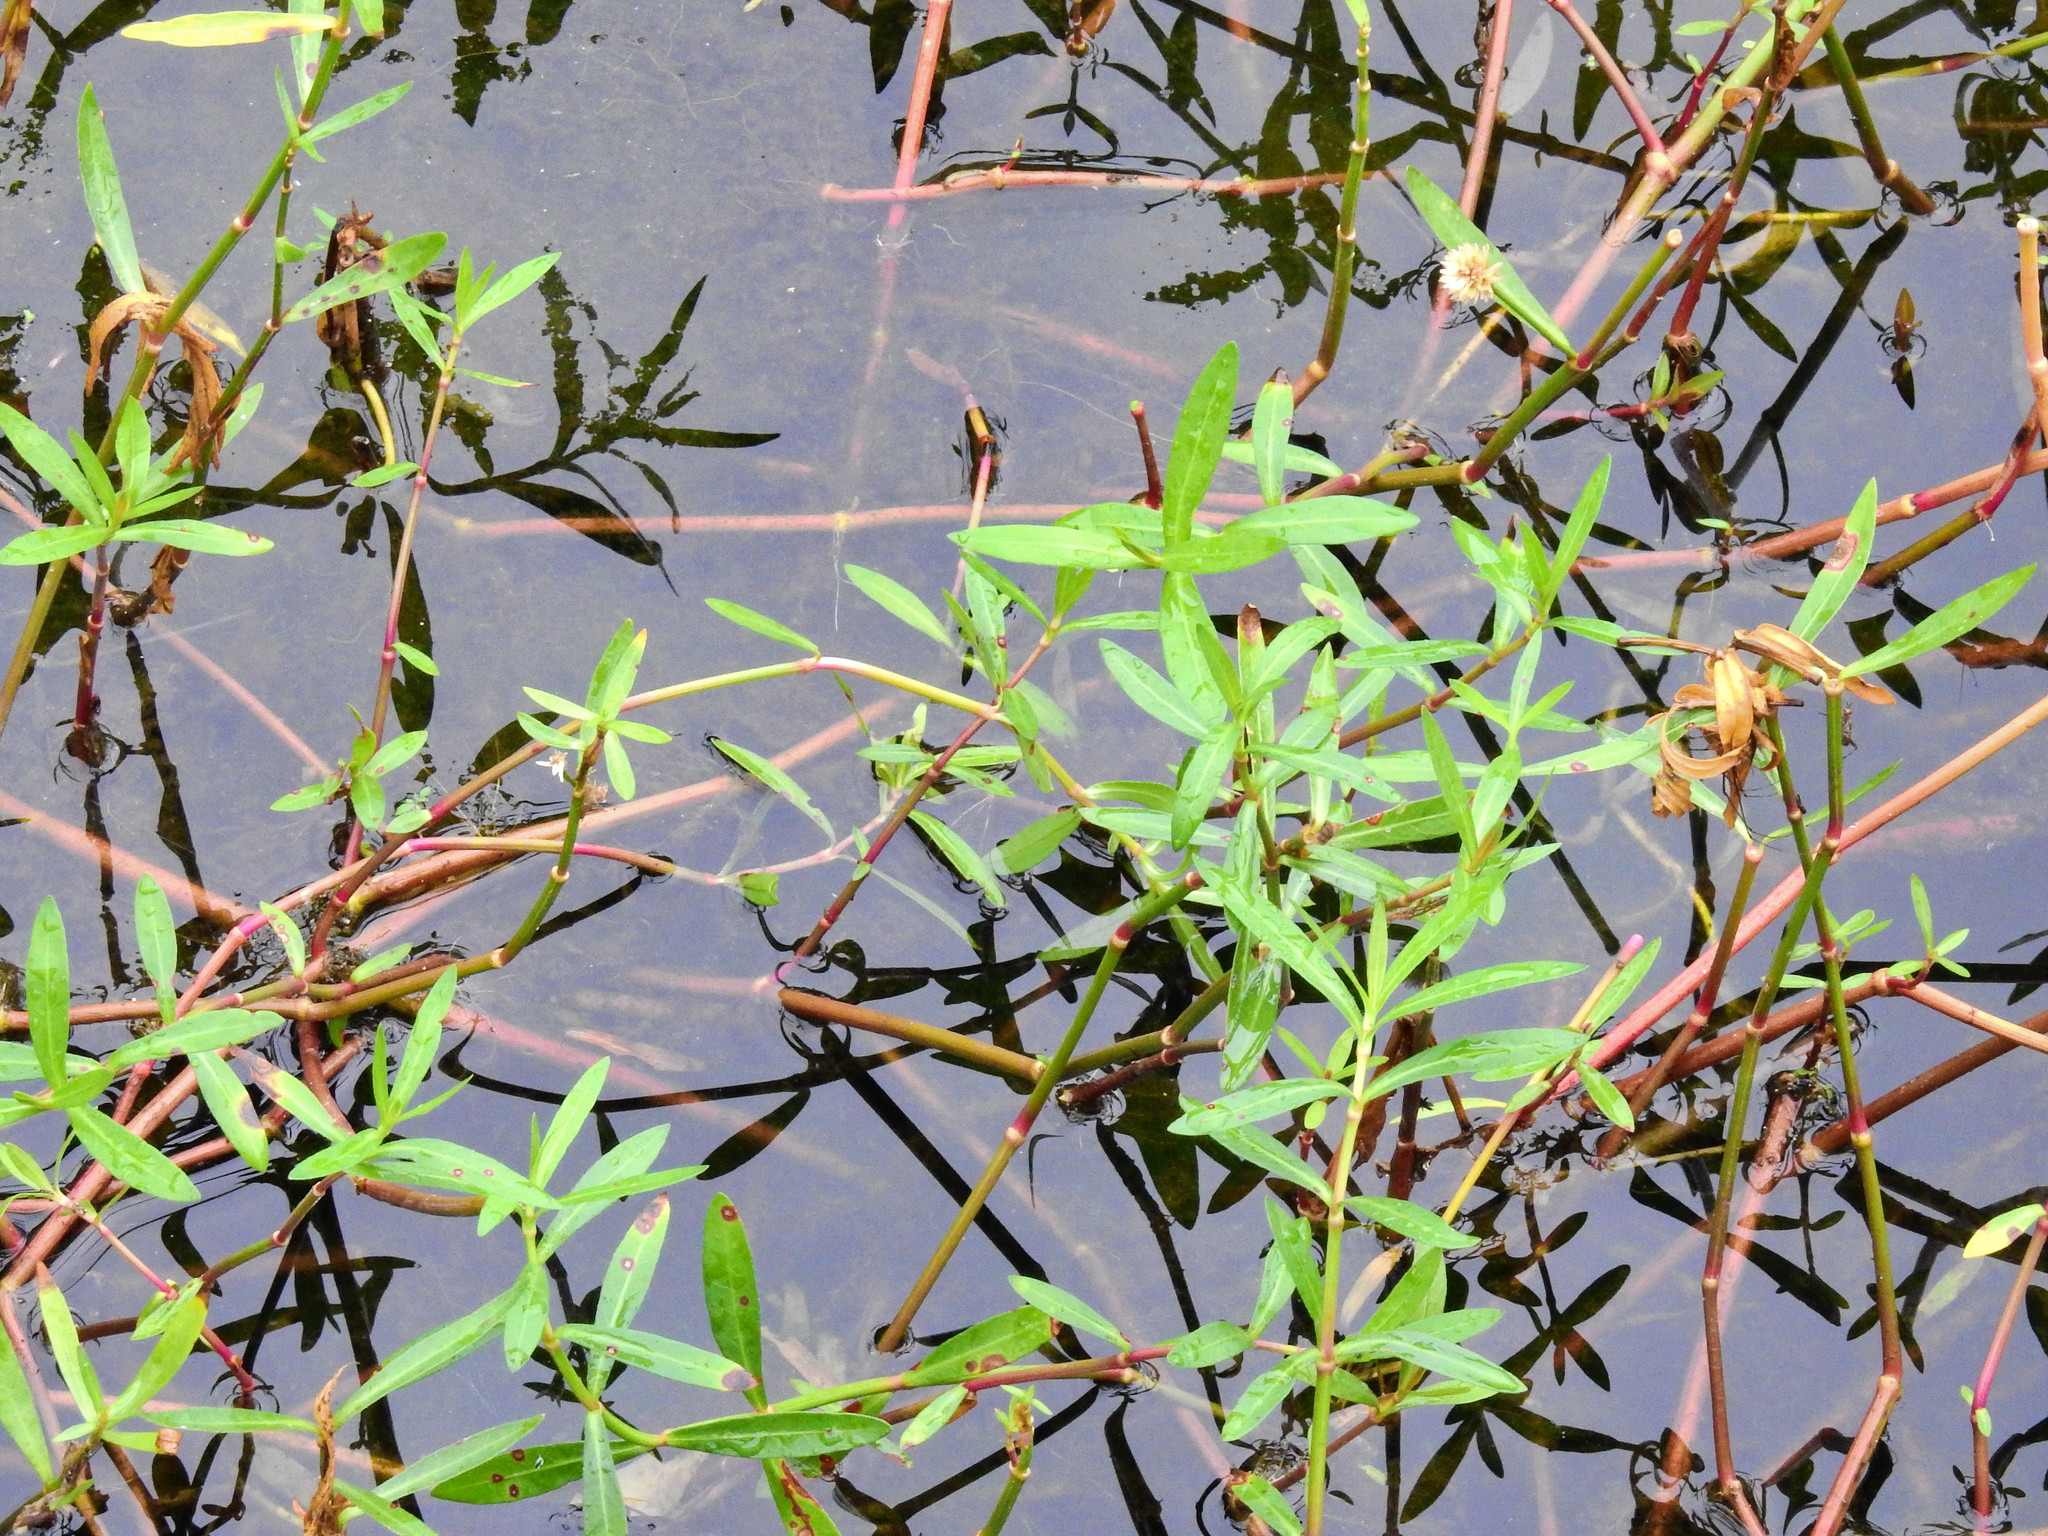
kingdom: Plantae
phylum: Tracheophyta
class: Magnoliopsida
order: Caryophyllales
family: Amaranthaceae
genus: Alternanthera
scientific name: Alternanthera philoxeroides
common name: Alligatorweed
